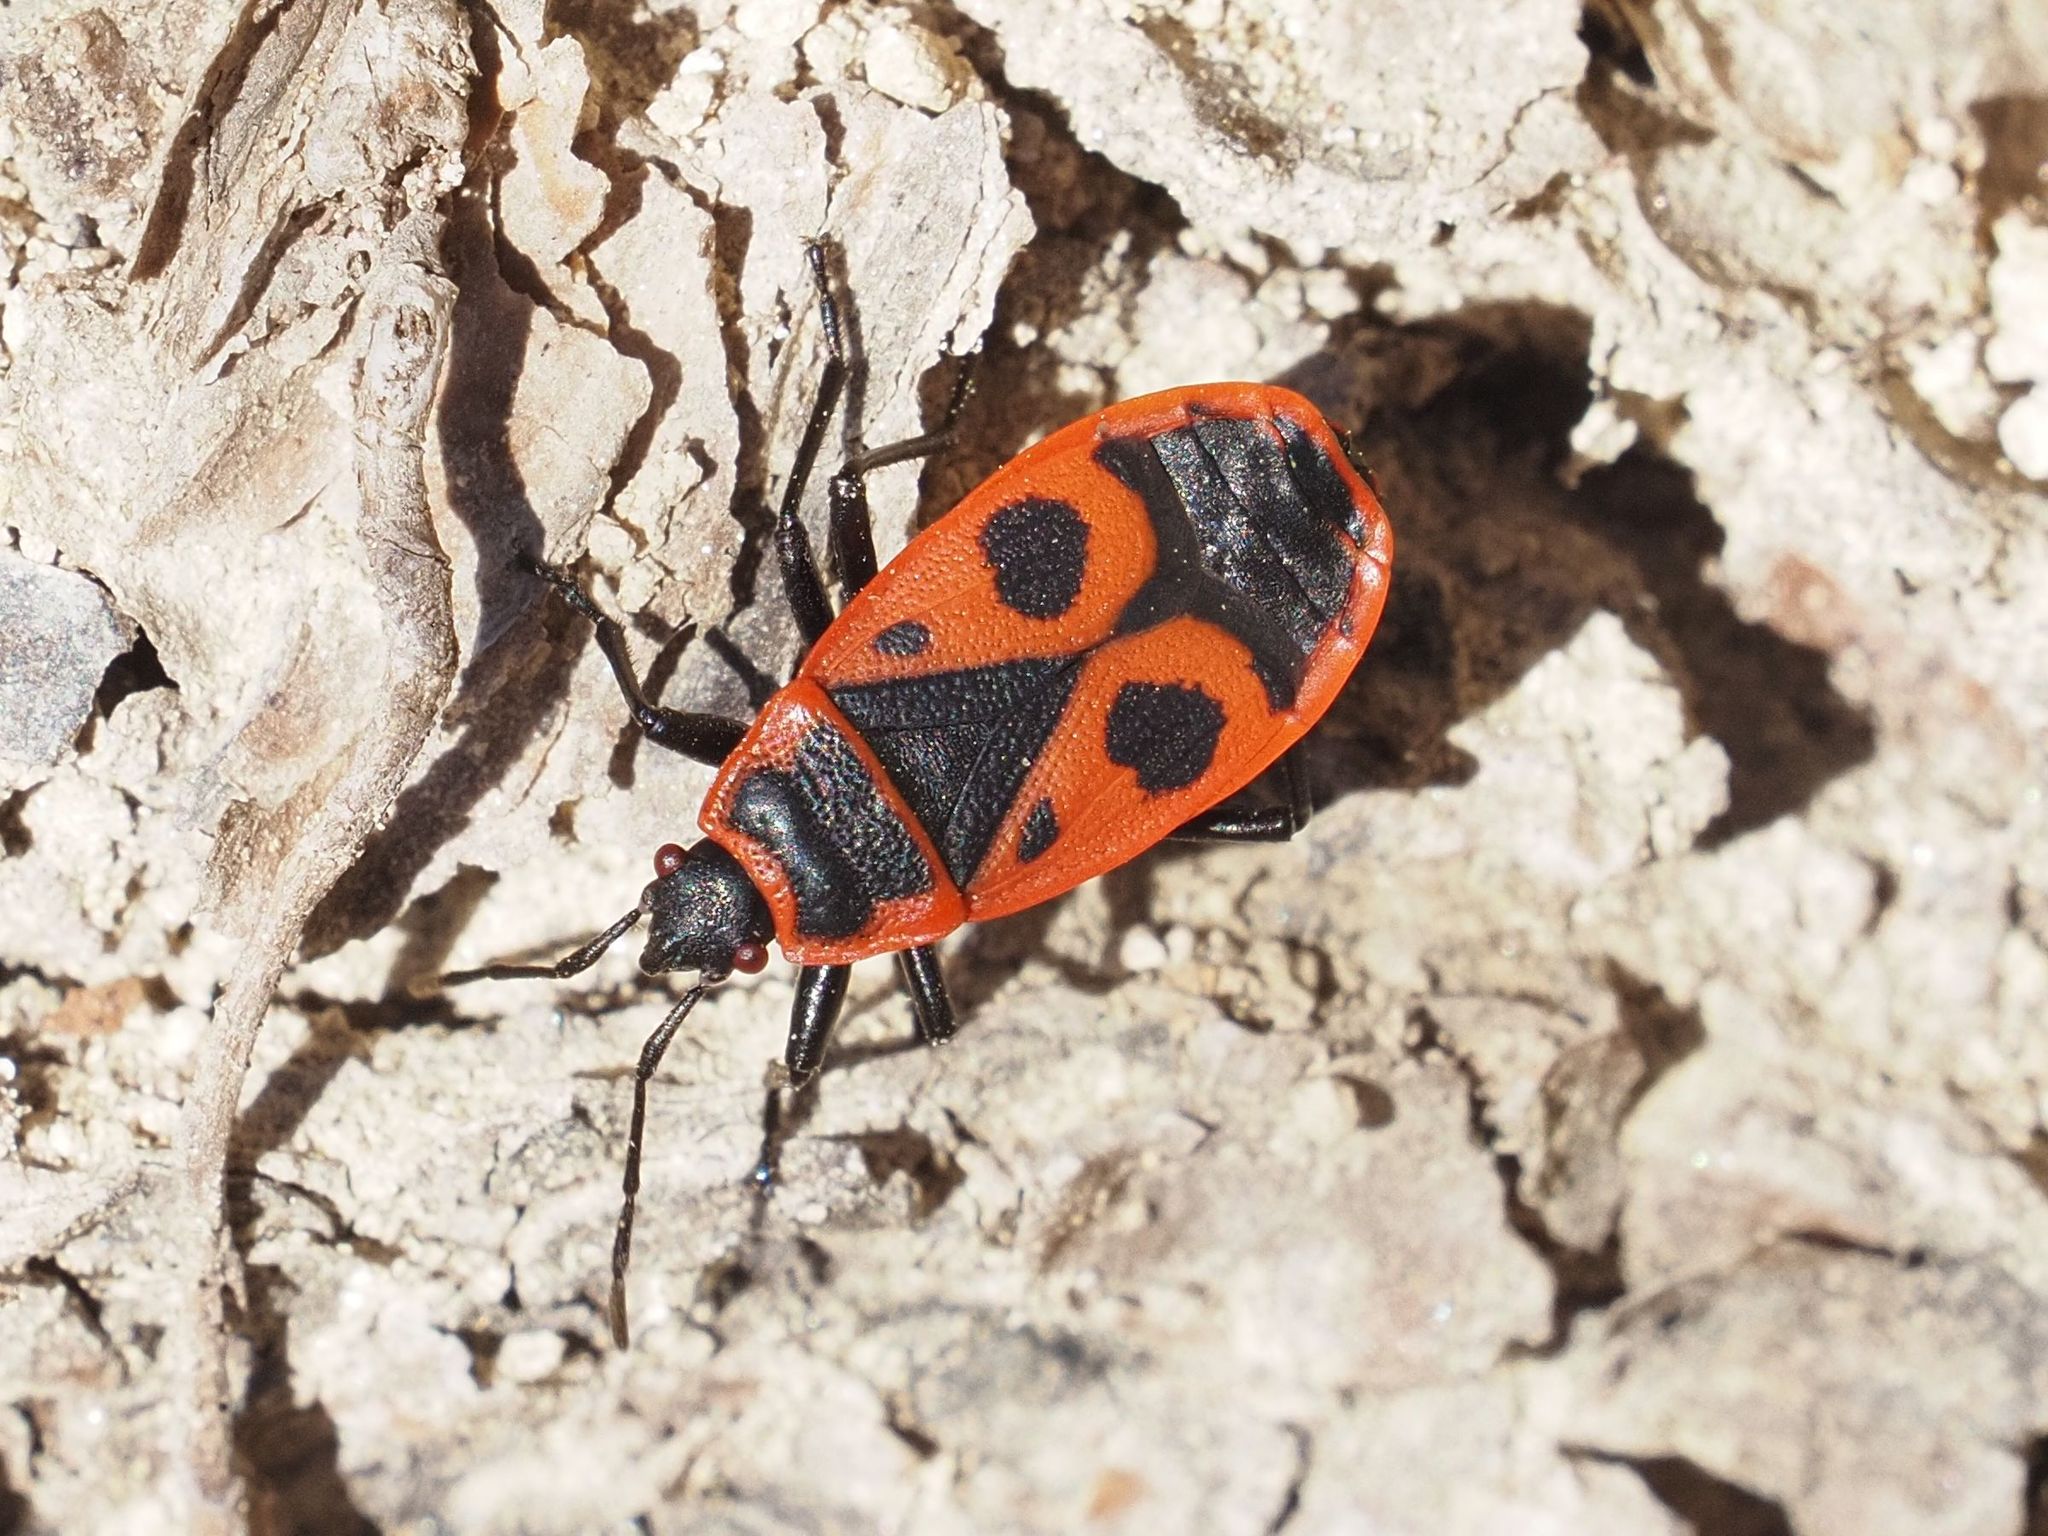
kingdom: Animalia
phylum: Arthropoda
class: Insecta
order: Hemiptera
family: Pyrrhocoridae
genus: Pyrrhocoris
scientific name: Pyrrhocoris apterus
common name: Firebug
